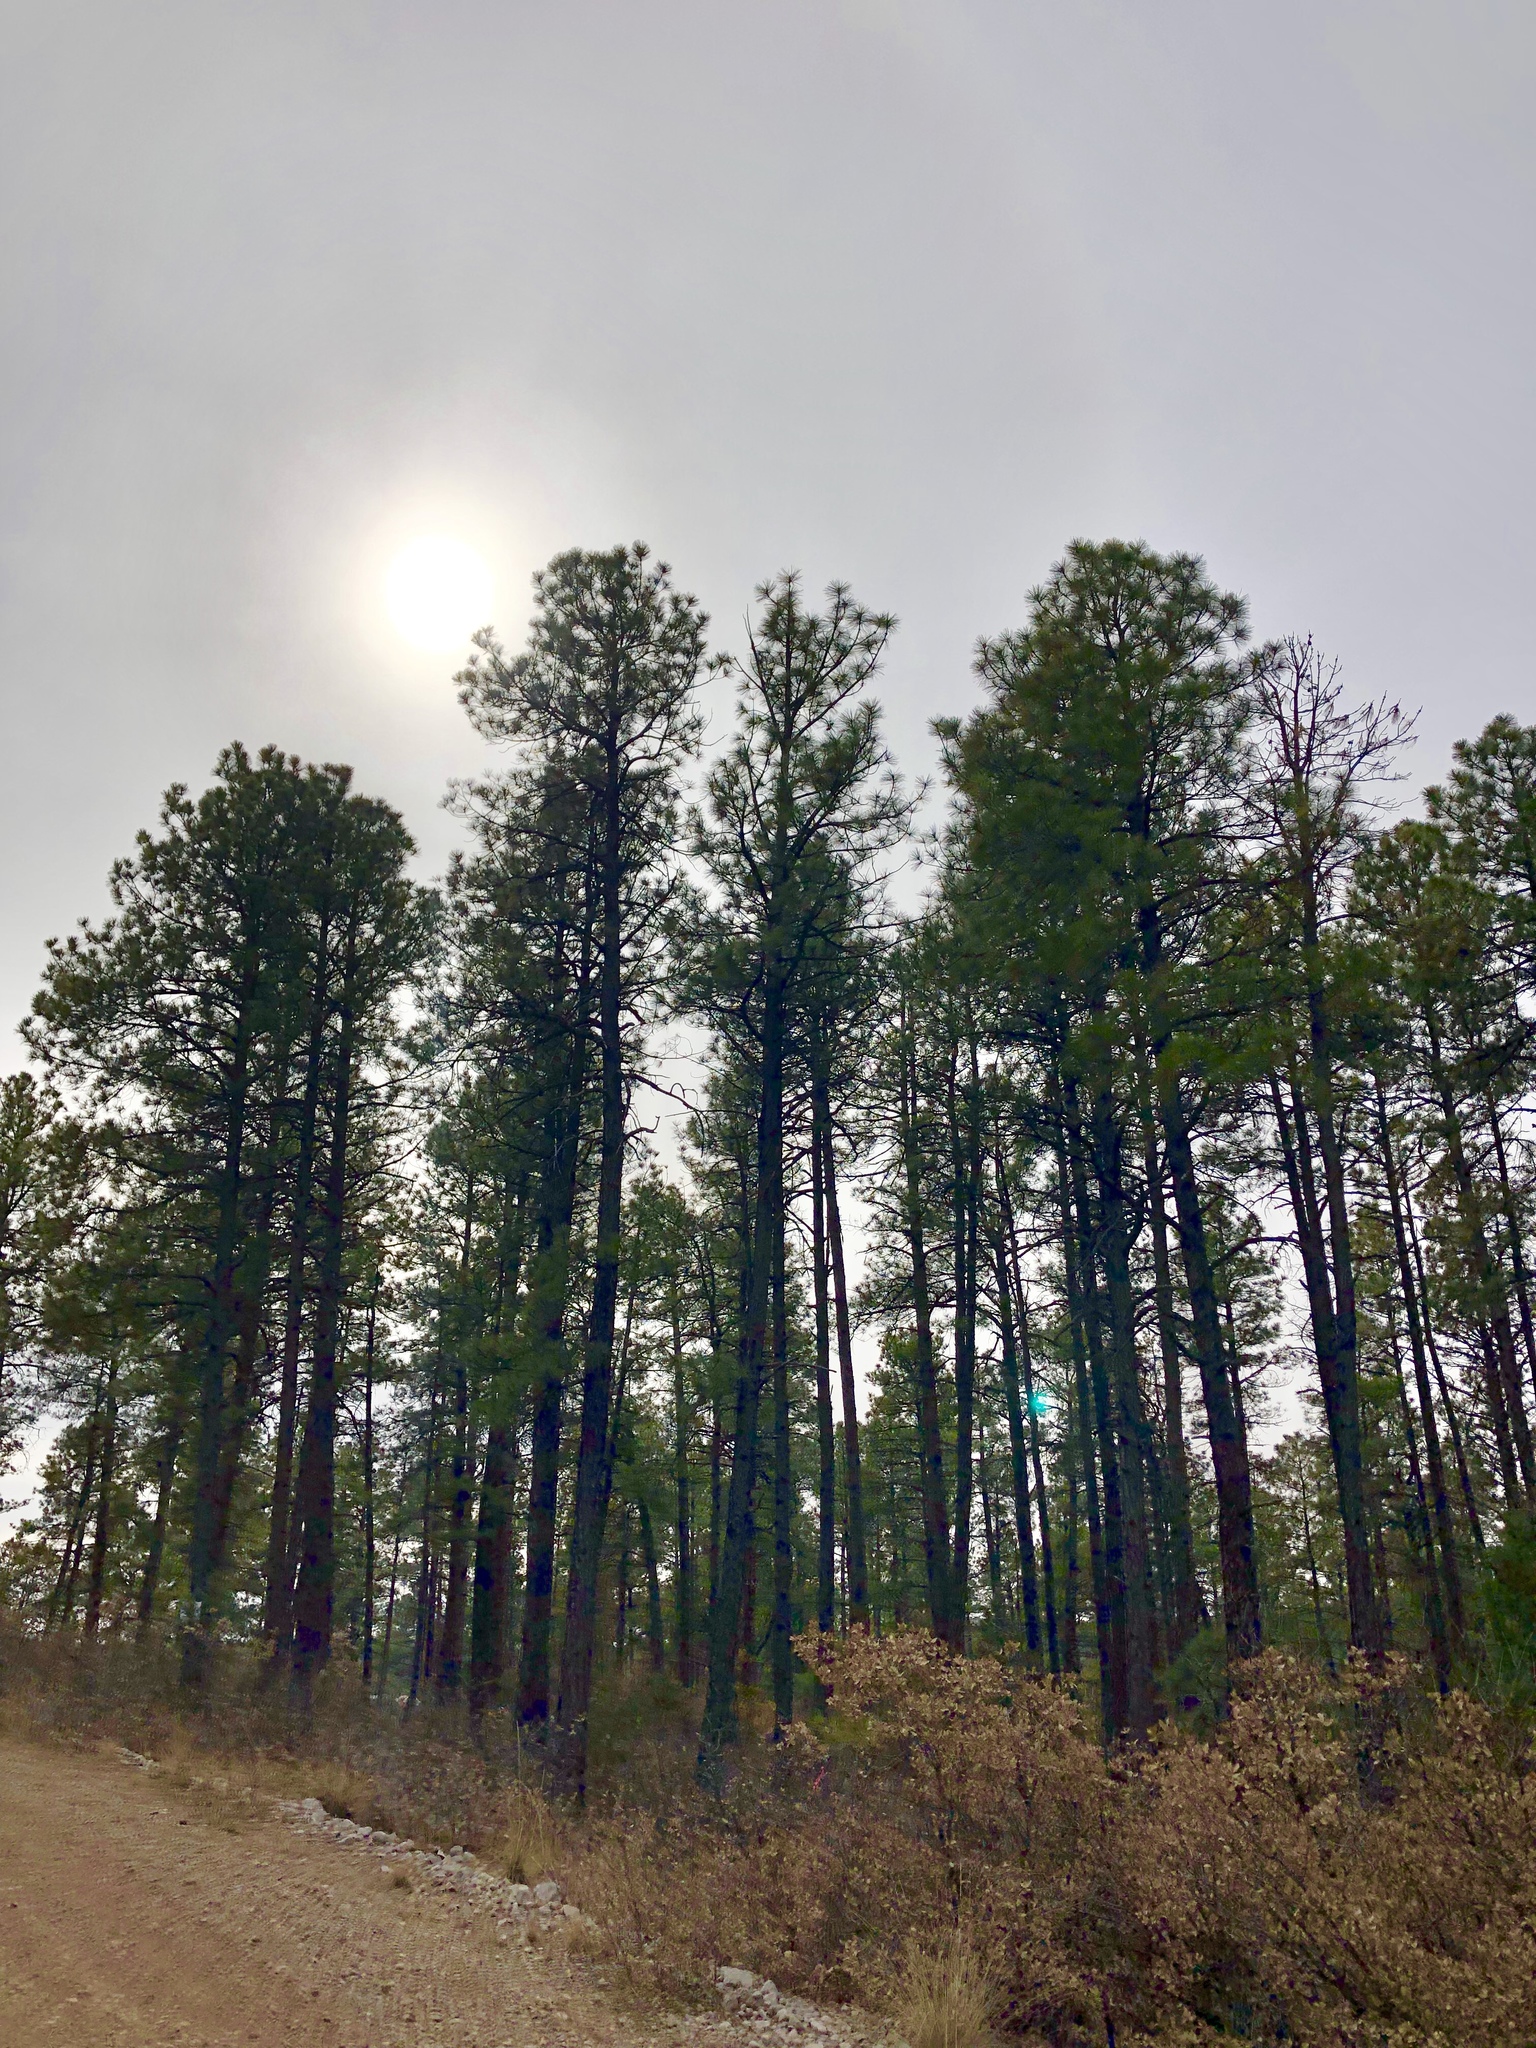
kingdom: Plantae
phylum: Tracheophyta
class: Pinopsida
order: Pinales
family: Pinaceae
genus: Pinus
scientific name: Pinus ponderosa
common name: Western yellow-pine
